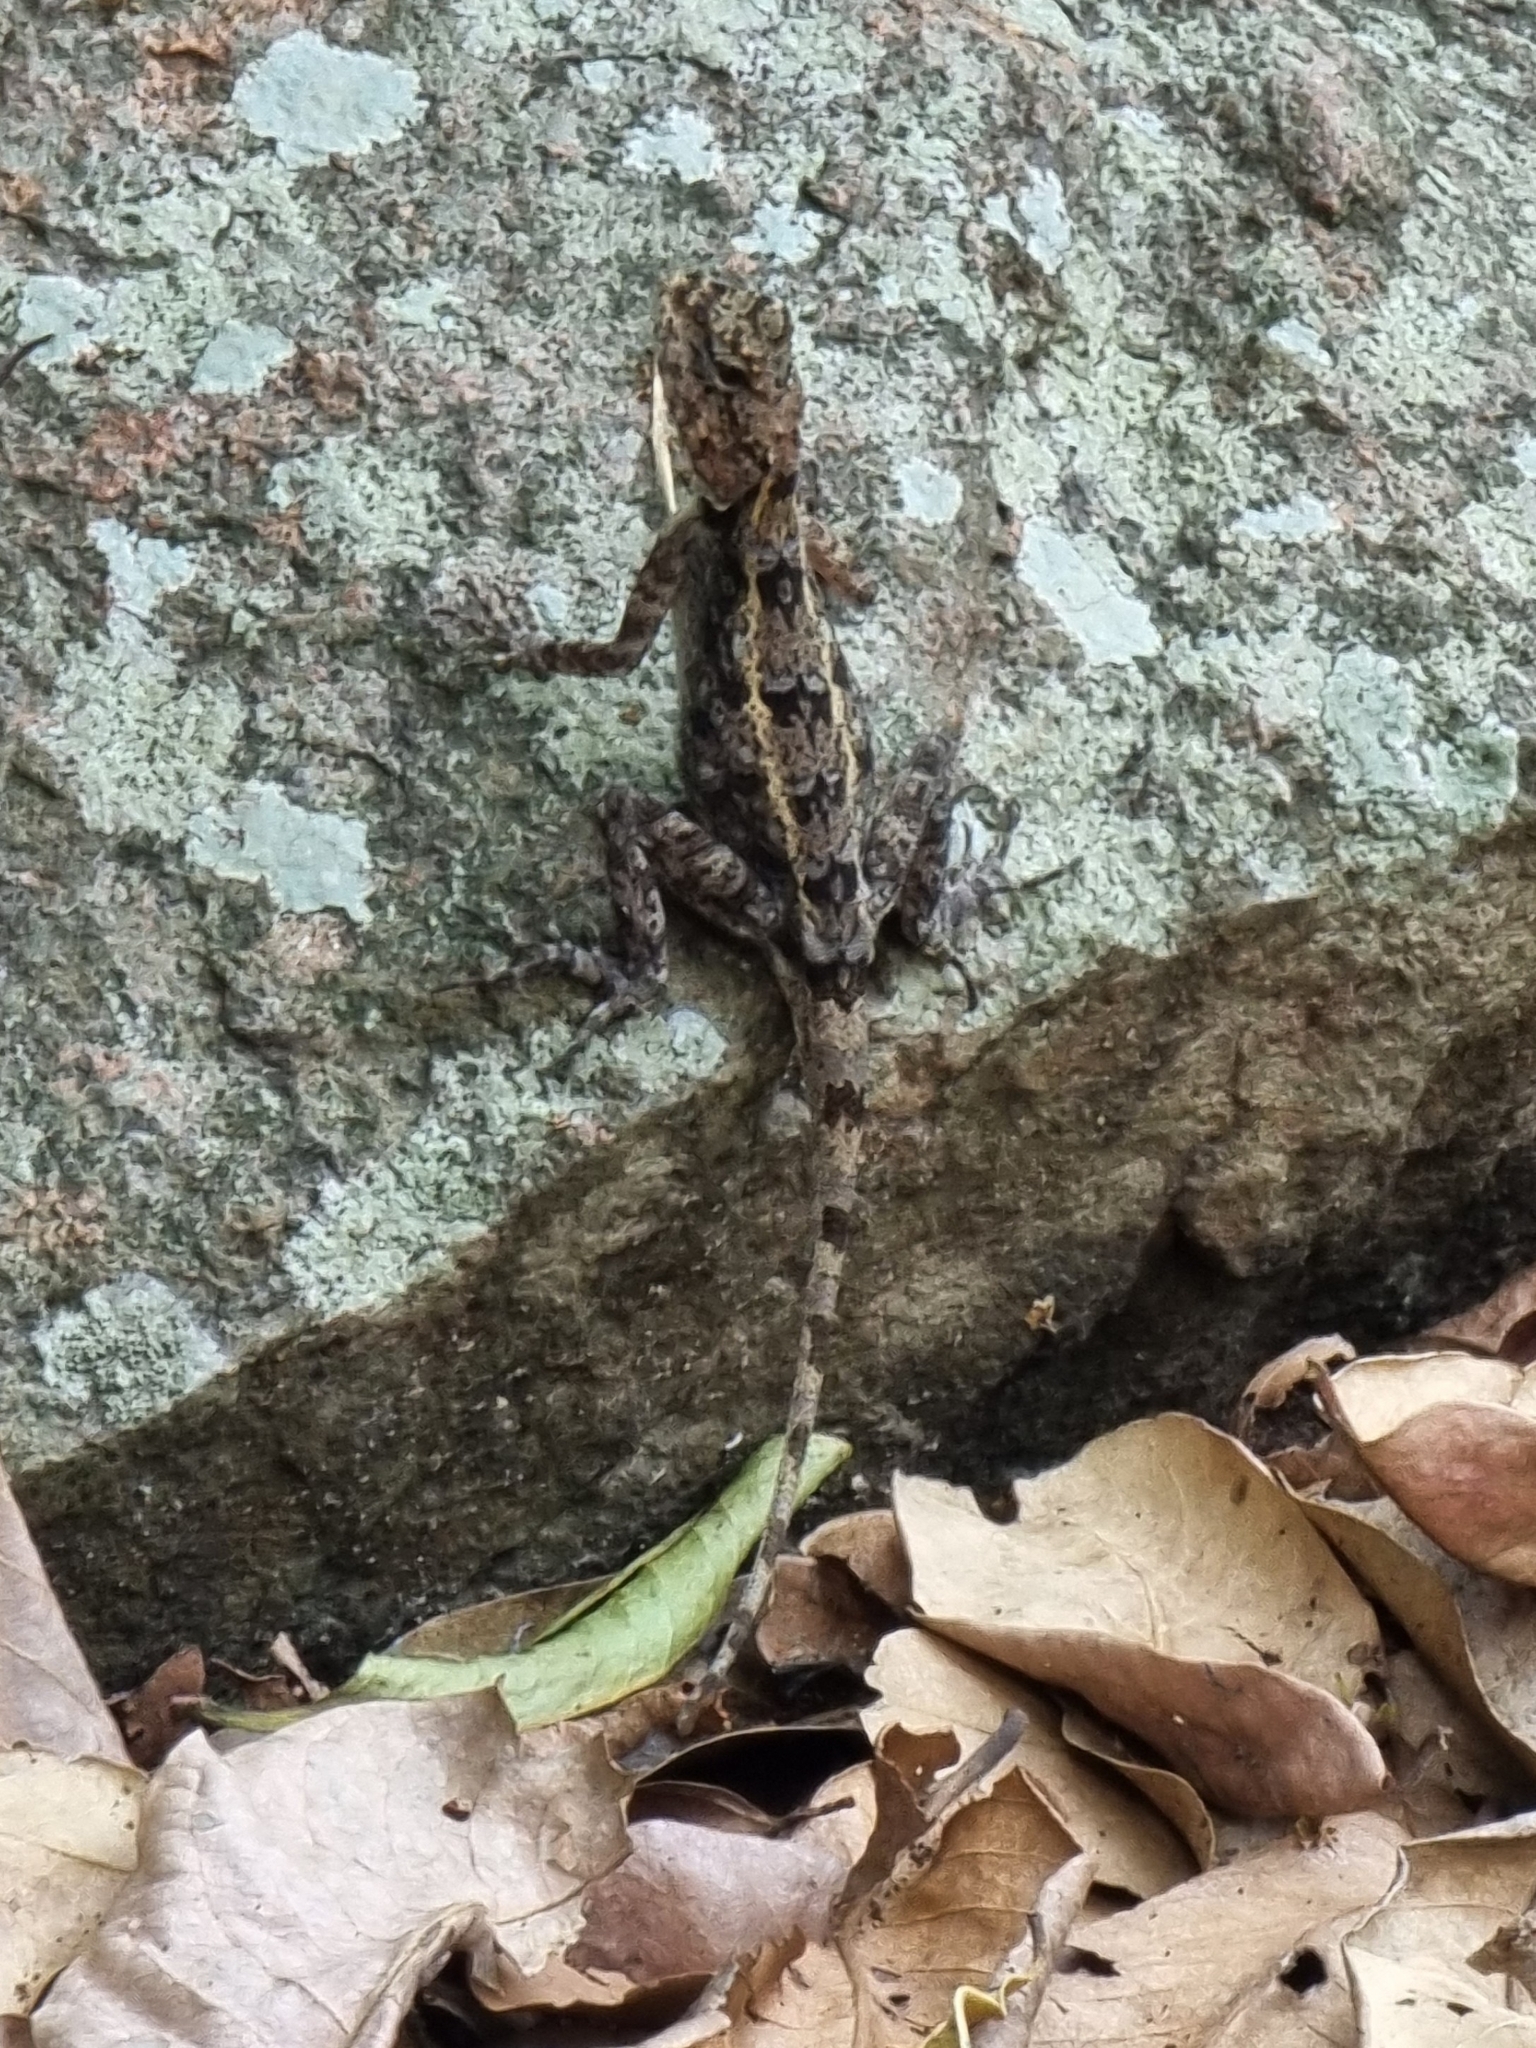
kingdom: Animalia
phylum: Chordata
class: Squamata
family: Agamidae
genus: Draco
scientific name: Draco dussumieri
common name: Southern flying lizard
